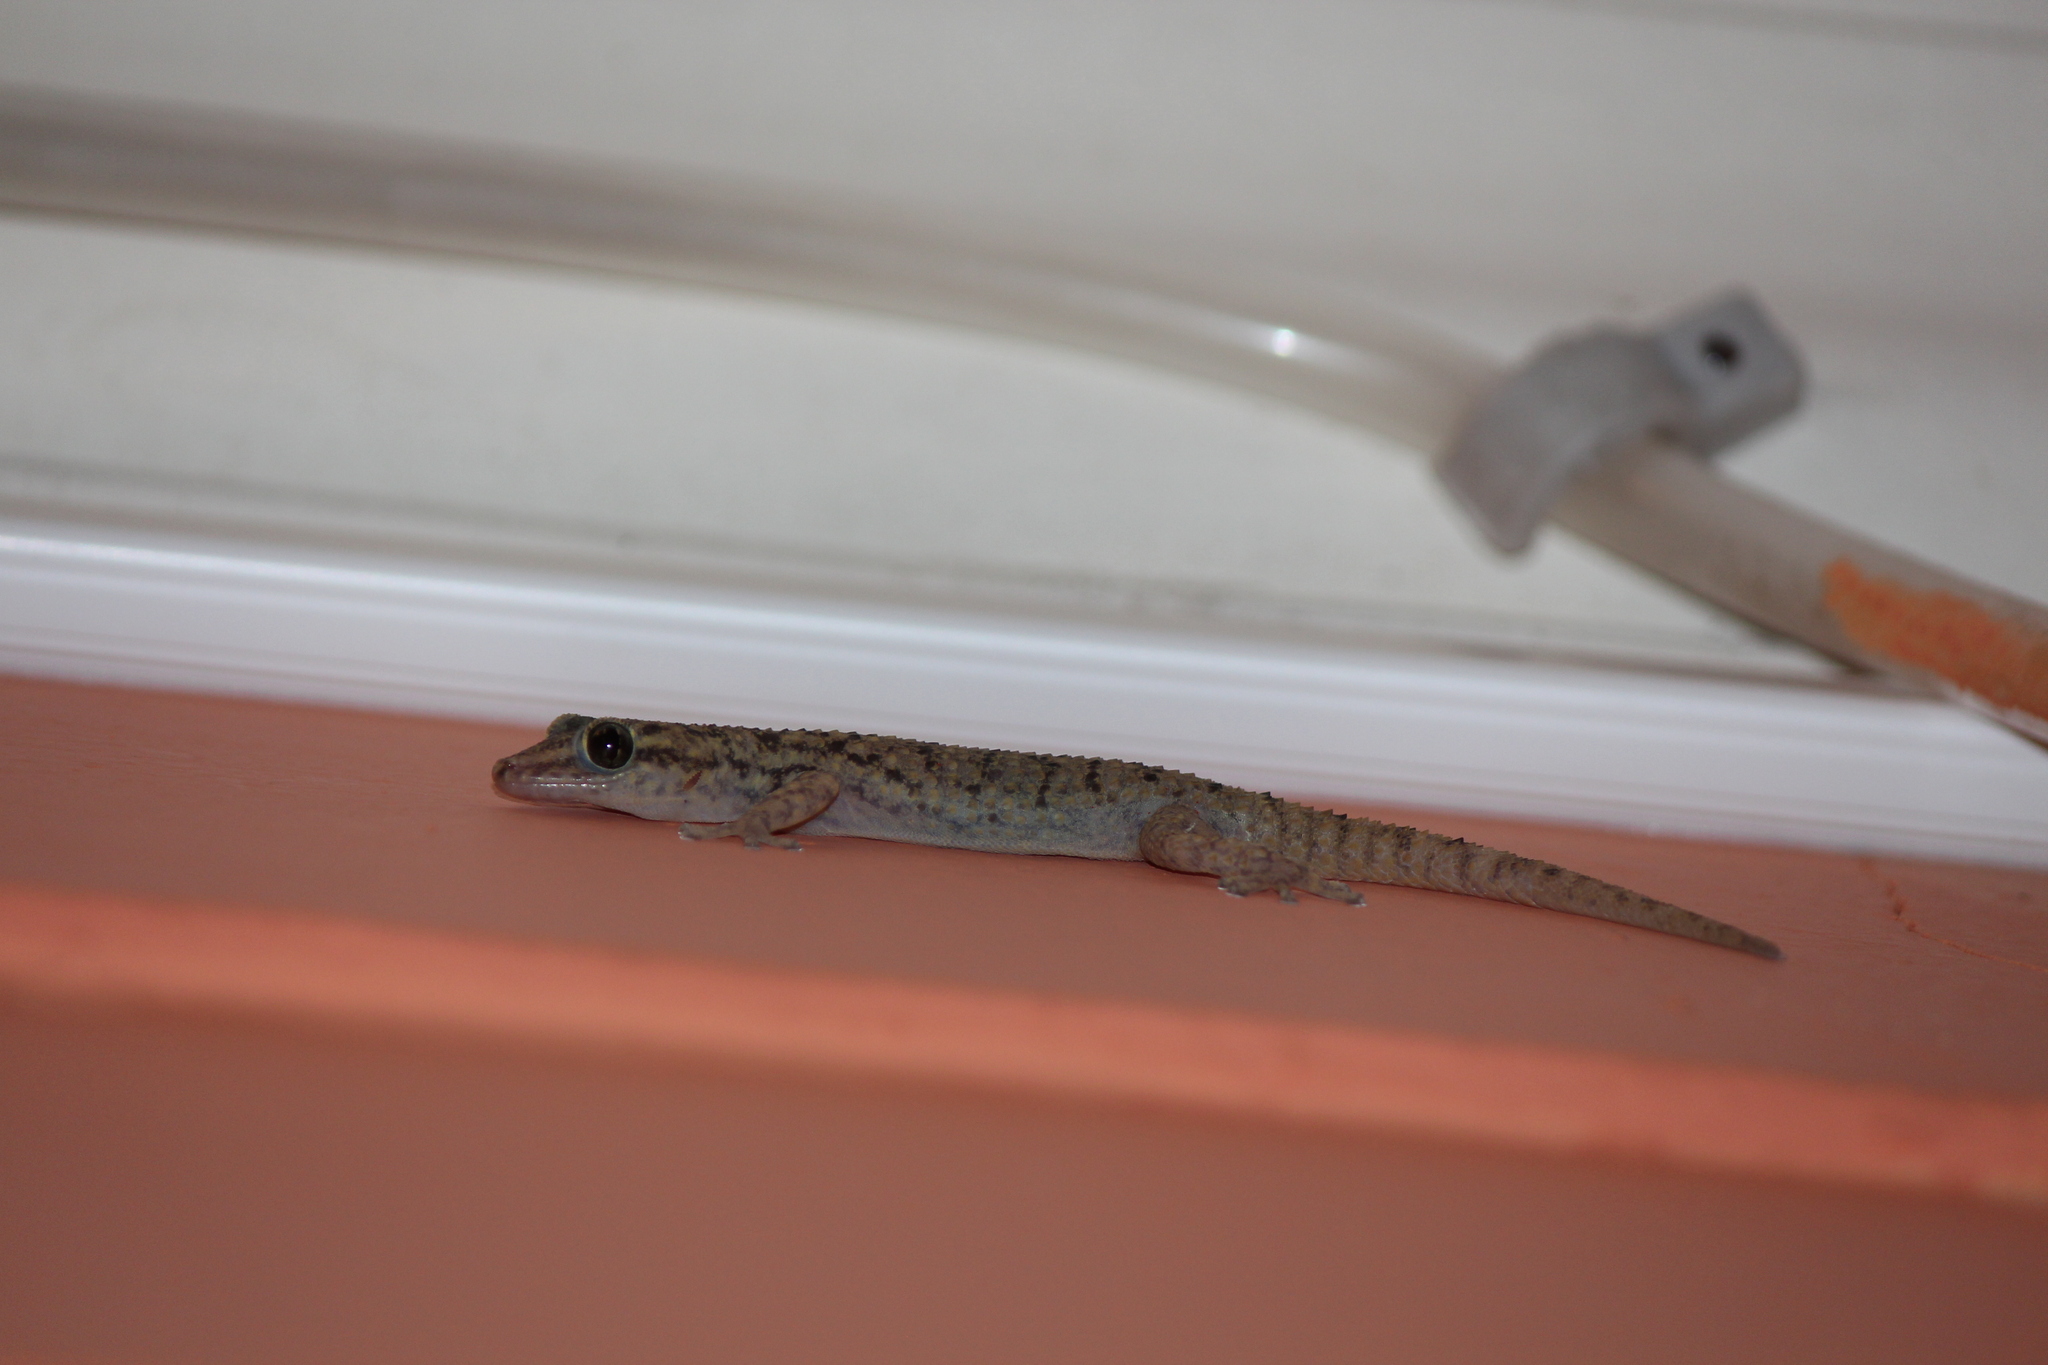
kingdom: Animalia
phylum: Chordata
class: Squamata
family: Phyllodactylidae
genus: Phyllodactylus
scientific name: Phyllodactylus darwini
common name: Darwin's leaf-toed gecko
